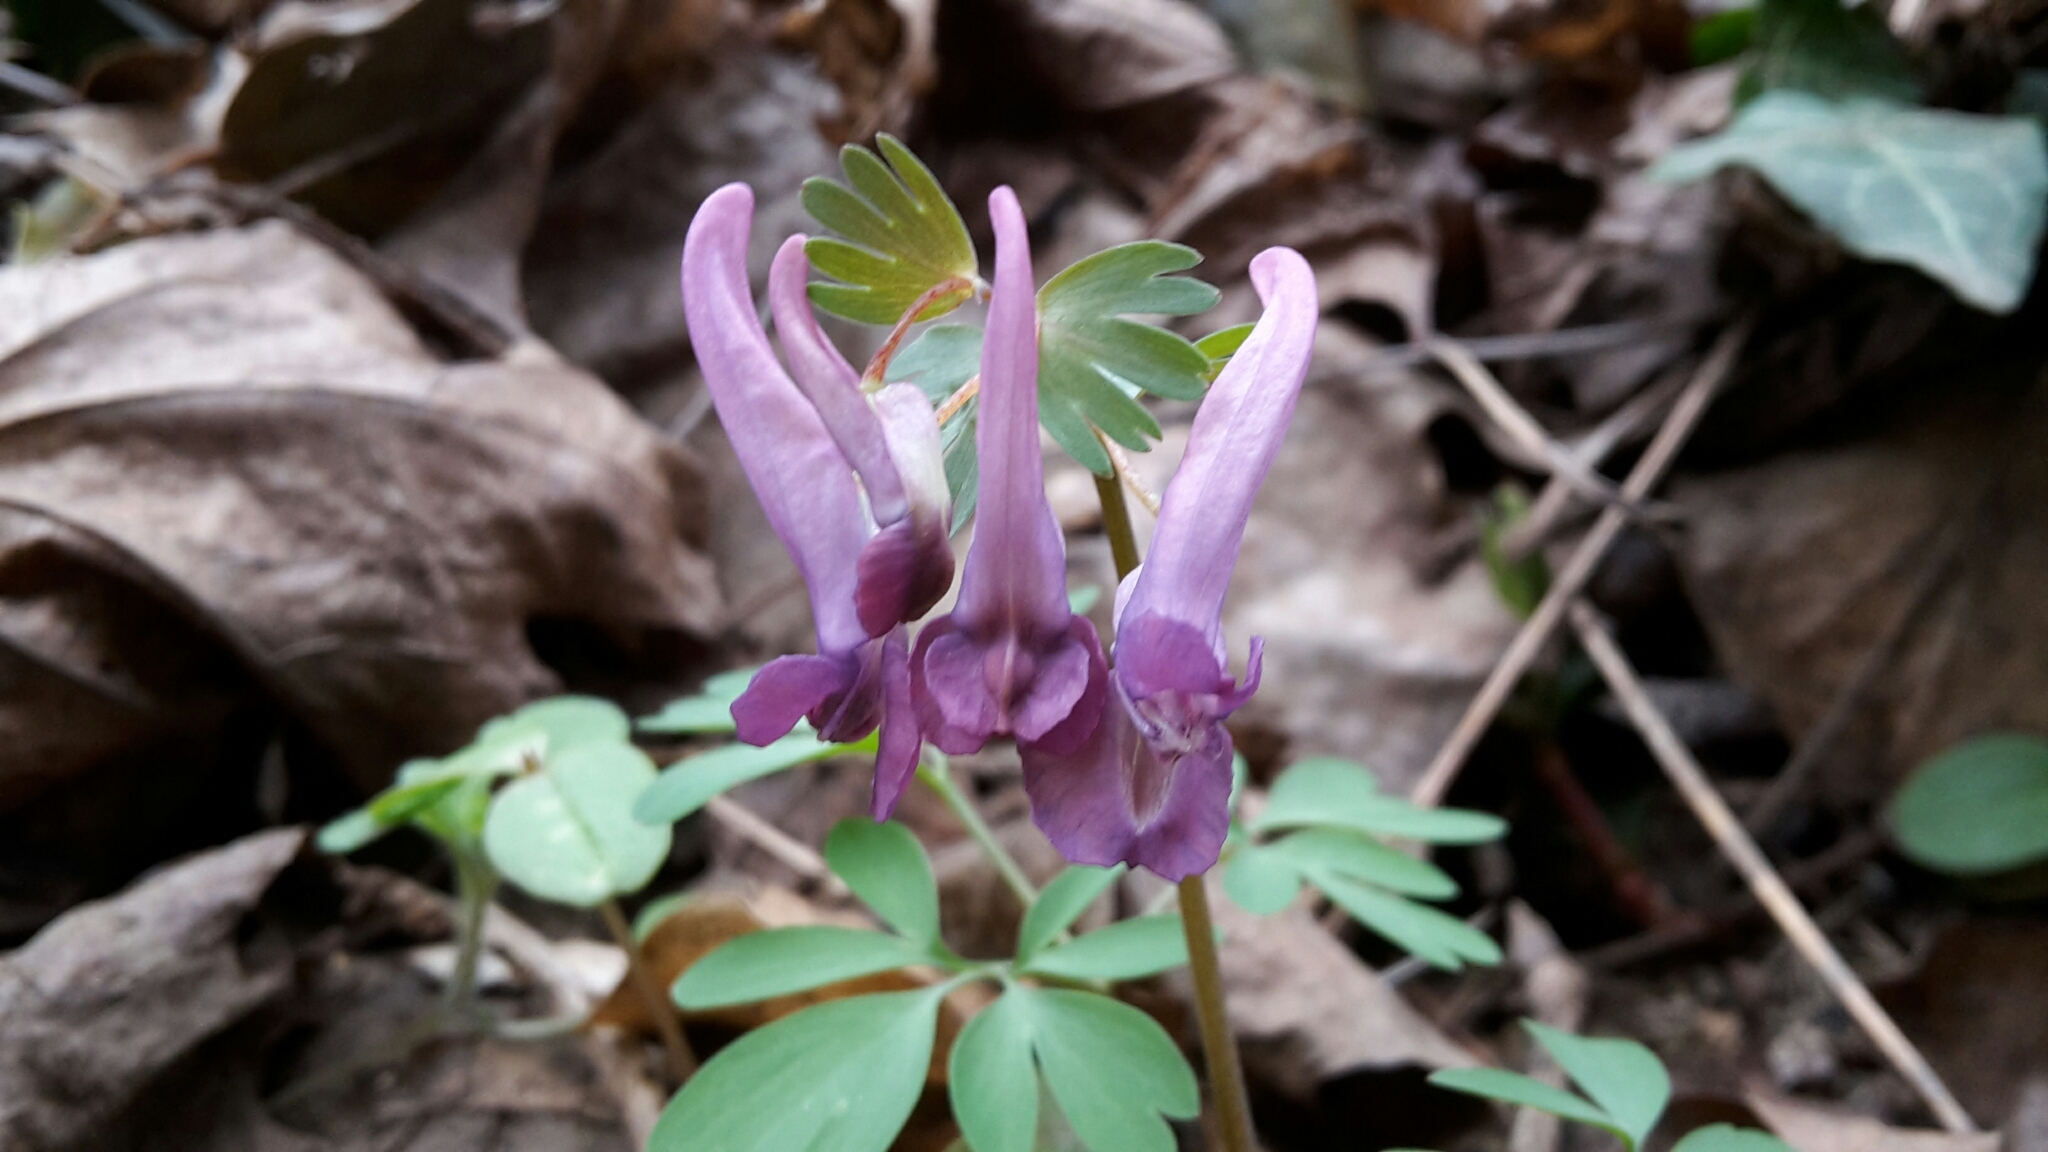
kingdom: Plantae
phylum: Tracheophyta
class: Magnoliopsida
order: Ranunculales
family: Papaveraceae
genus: Corydalis
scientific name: Corydalis solida
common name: Bird-in-a-bush
